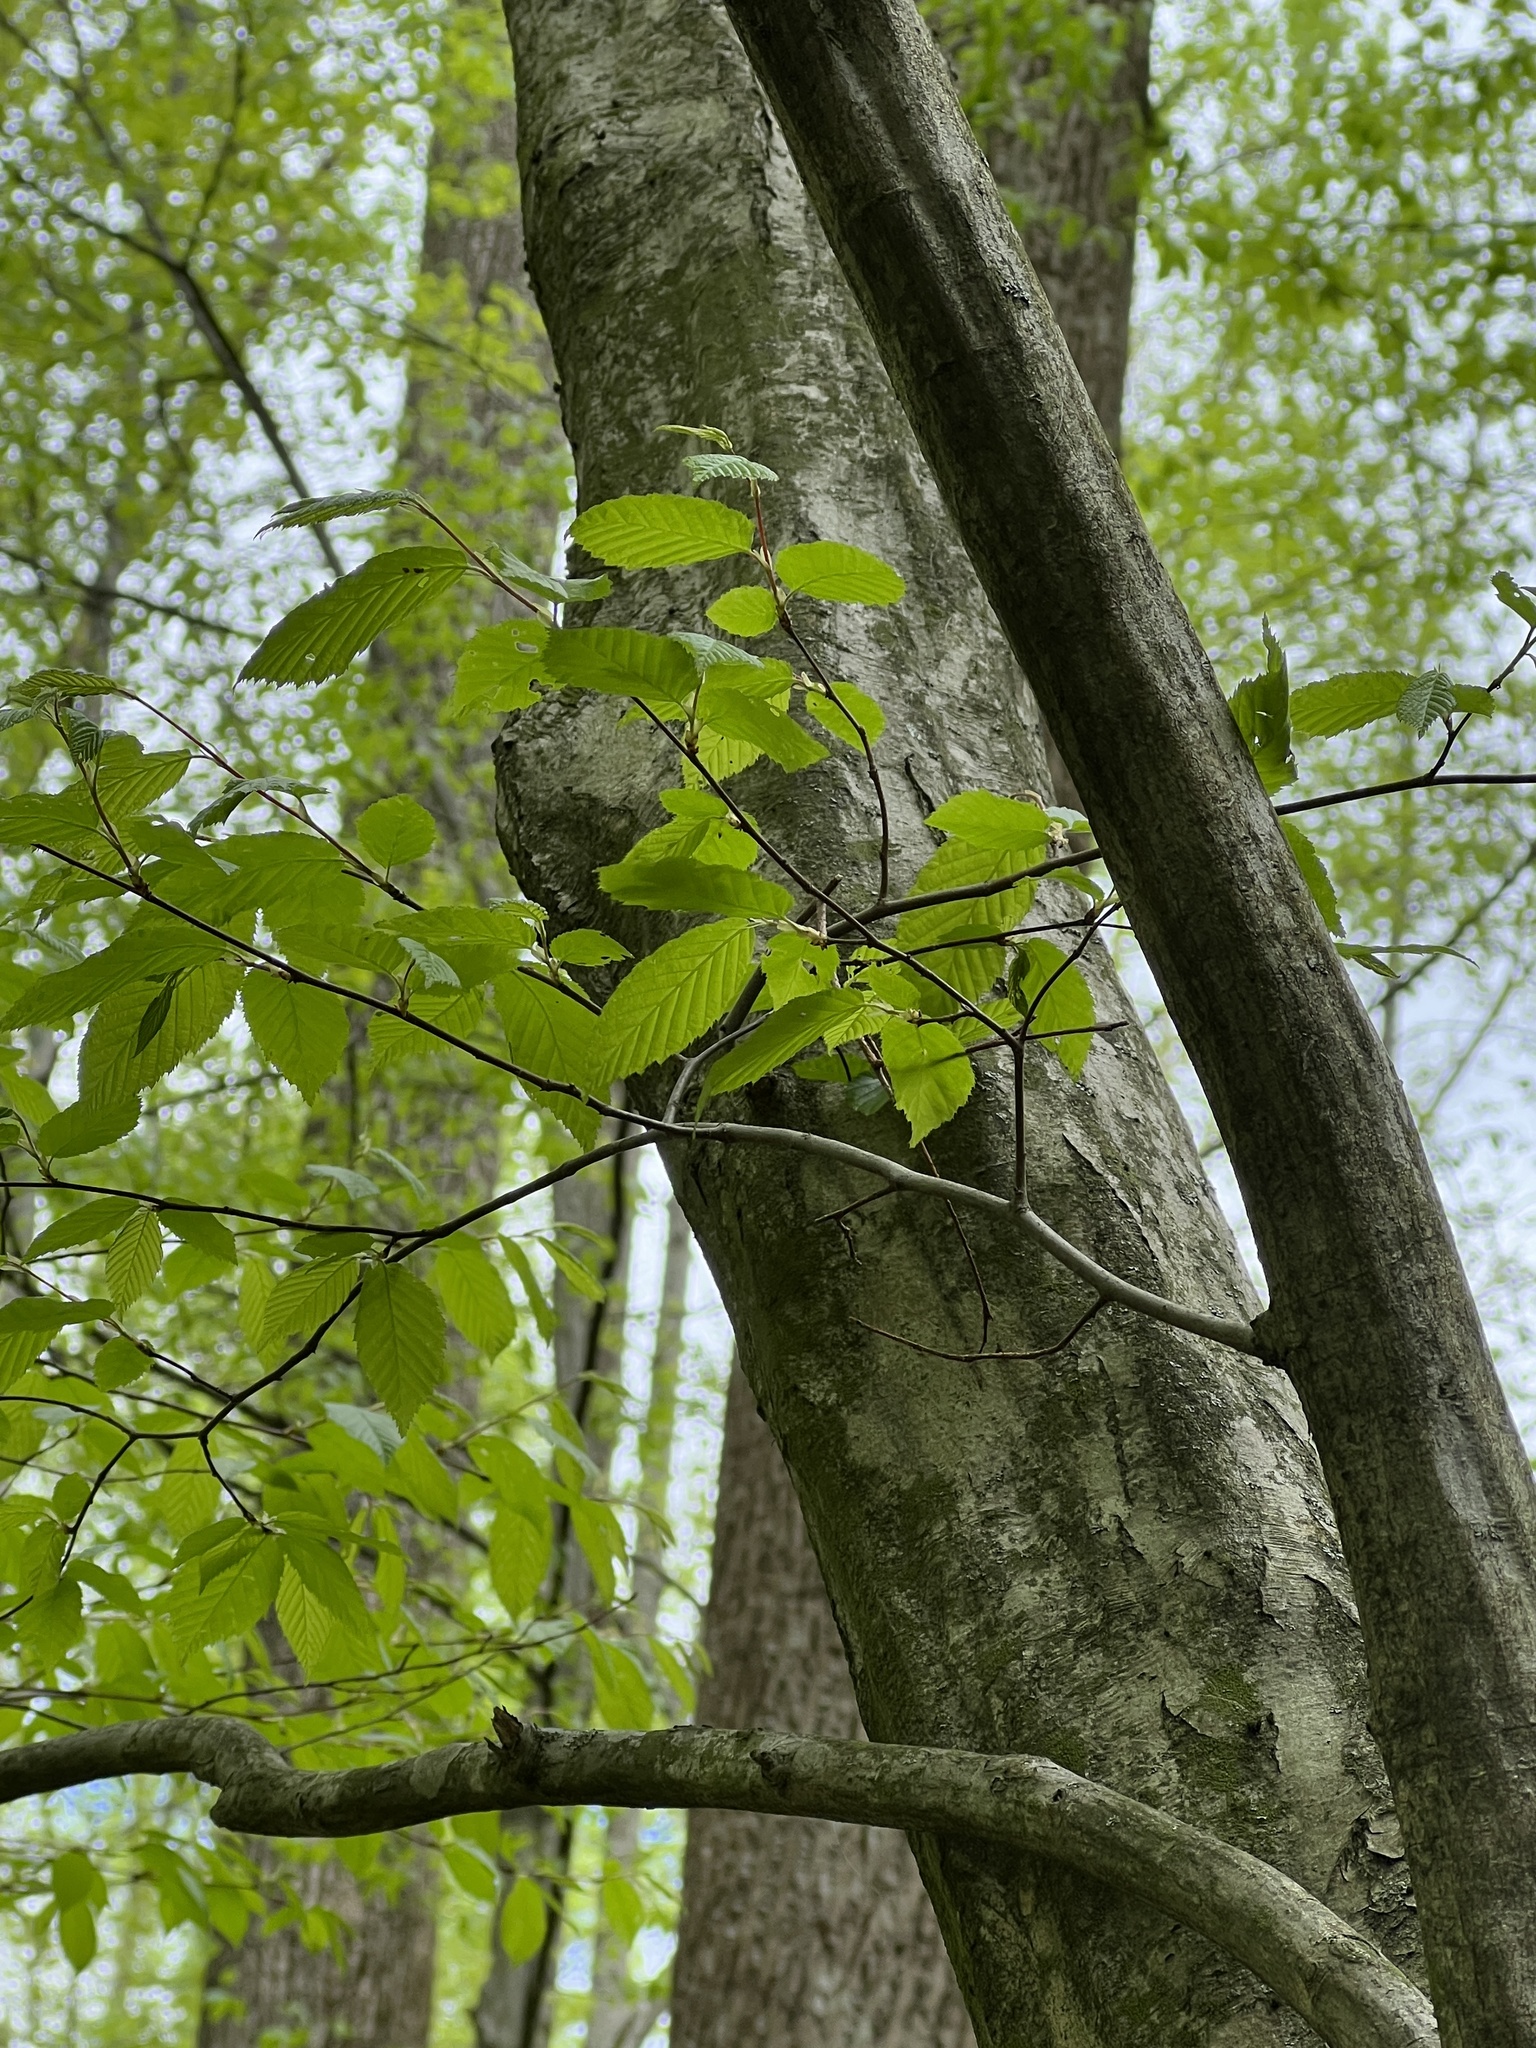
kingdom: Plantae
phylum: Tracheophyta
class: Magnoliopsida
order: Fagales
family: Betulaceae
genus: Carpinus
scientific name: Carpinus caroliniana
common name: American hornbeam
